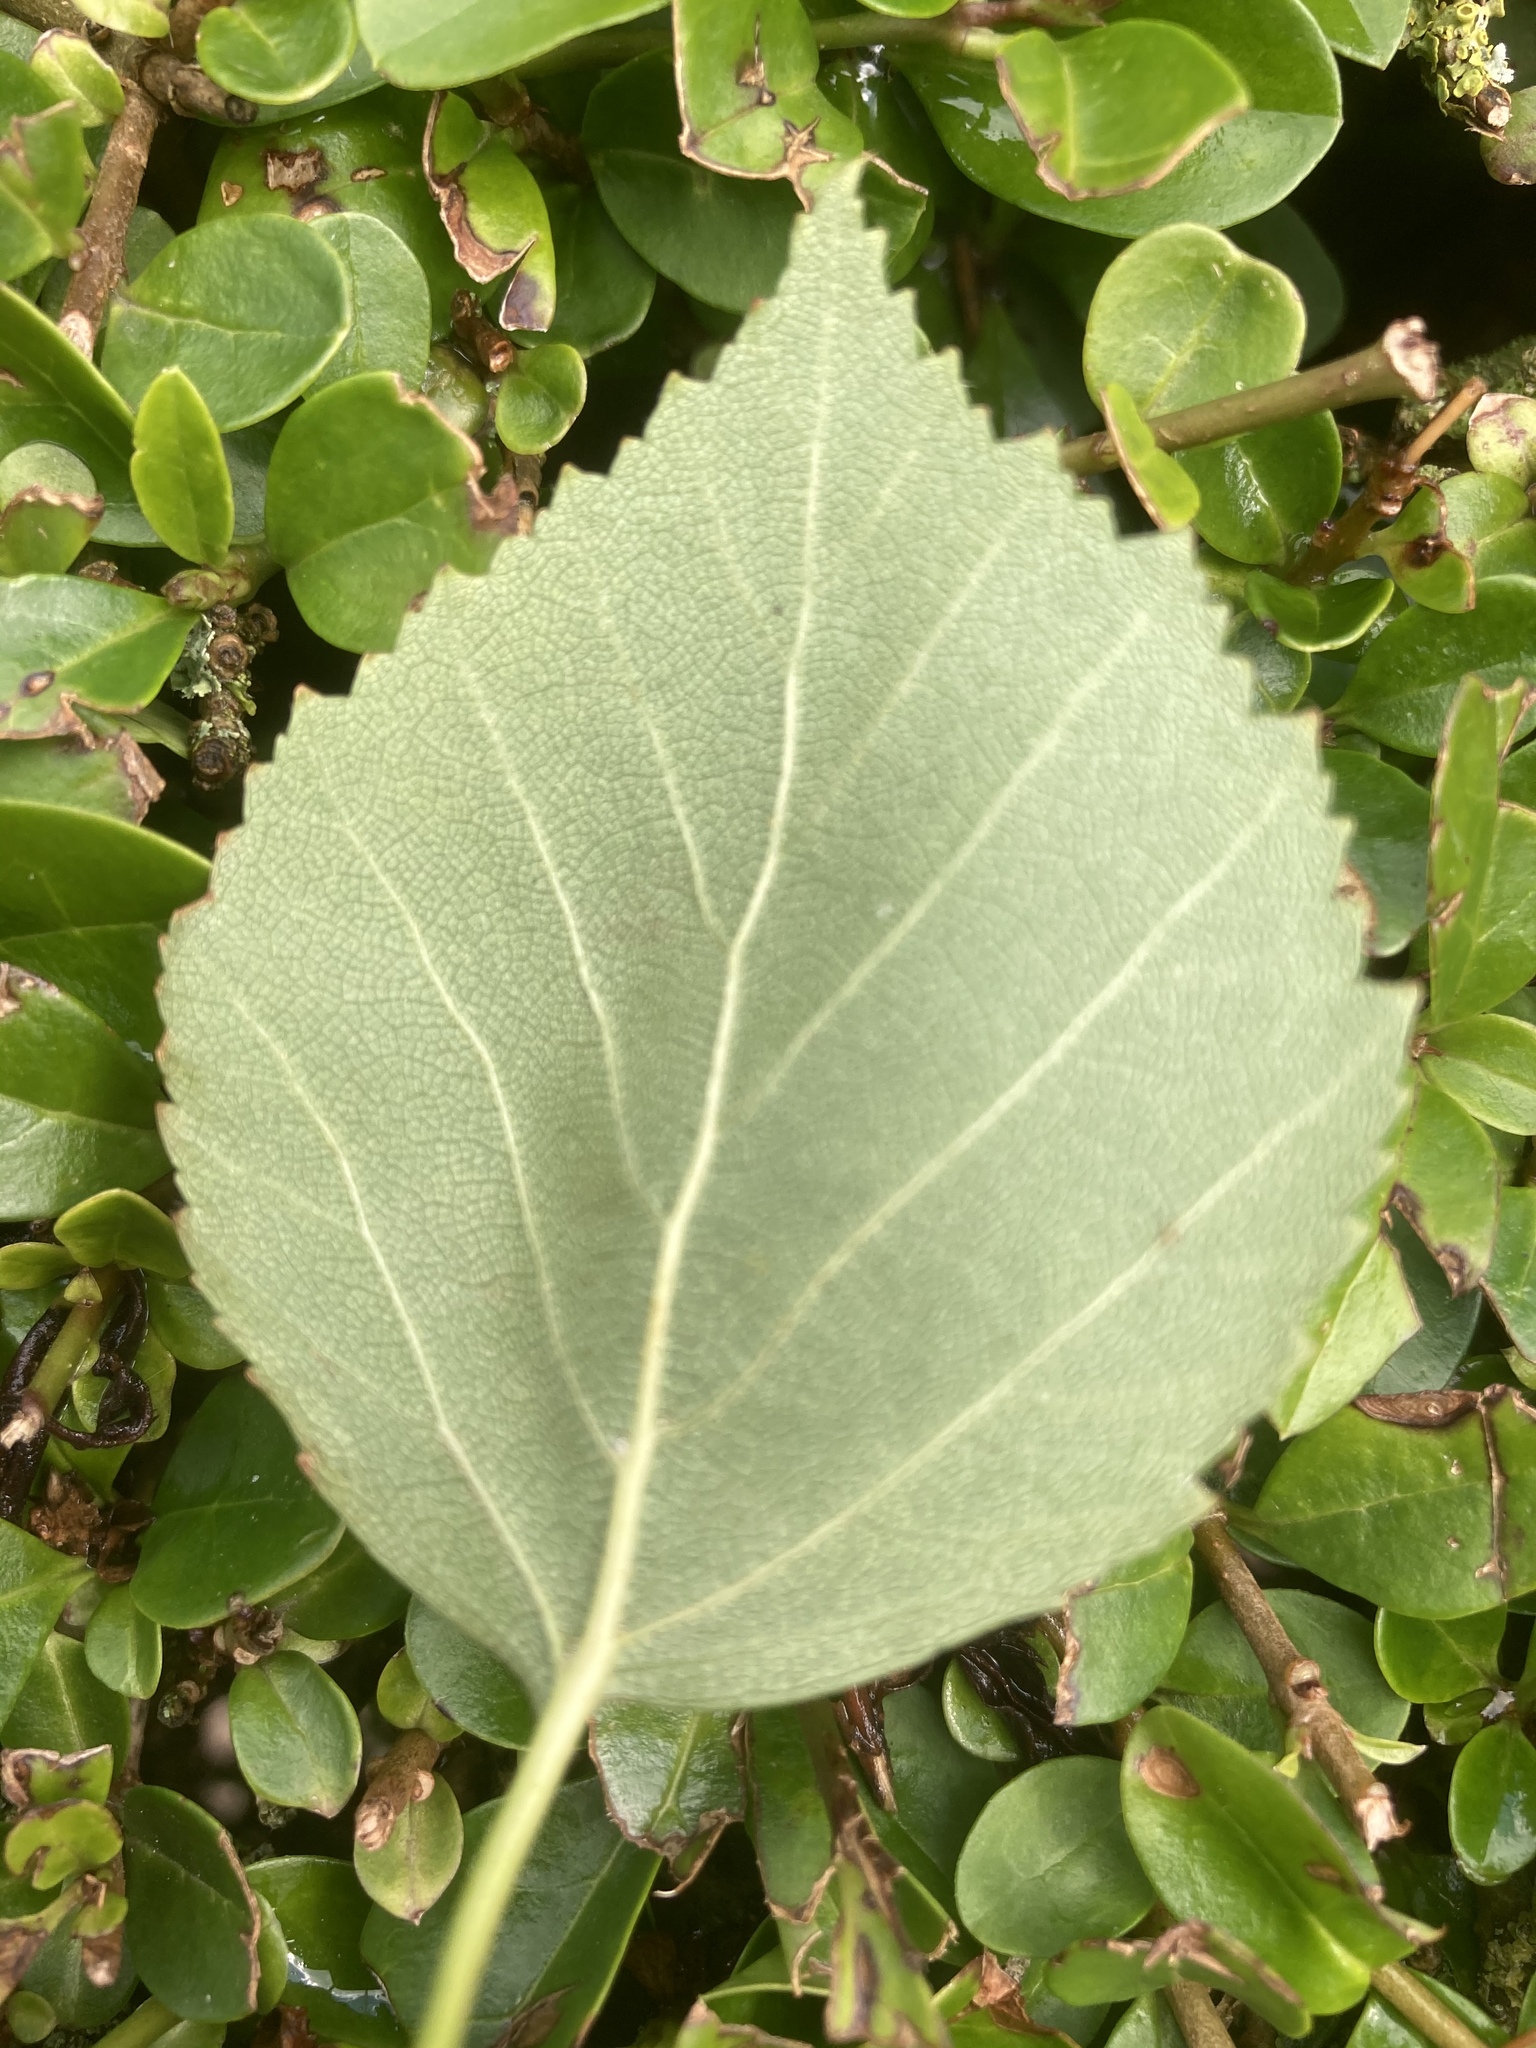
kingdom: Plantae
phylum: Tracheophyta
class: Magnoliopsida
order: Fagales
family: Betulaceae
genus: Betula
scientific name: Betula pendula
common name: Silver birch
